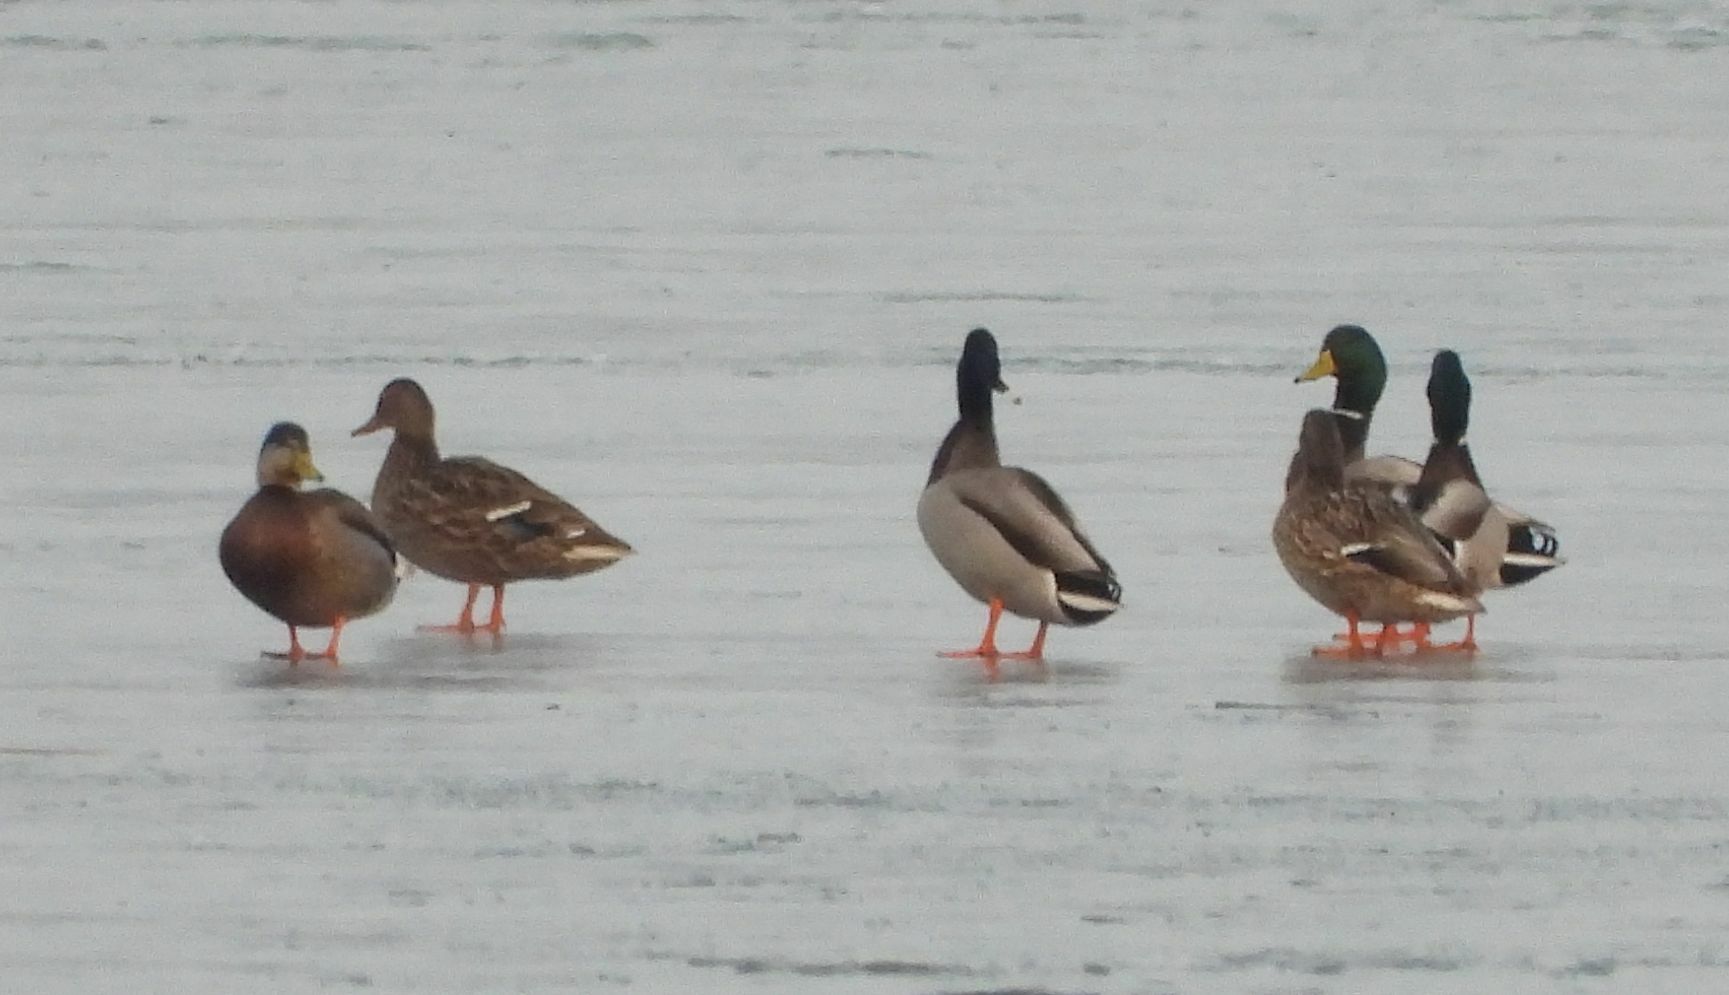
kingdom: Animalia
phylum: Chordata
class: Aves
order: Anseriformes
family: Anatidae
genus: Anas
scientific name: Anas platyrhynchos
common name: Mallard
